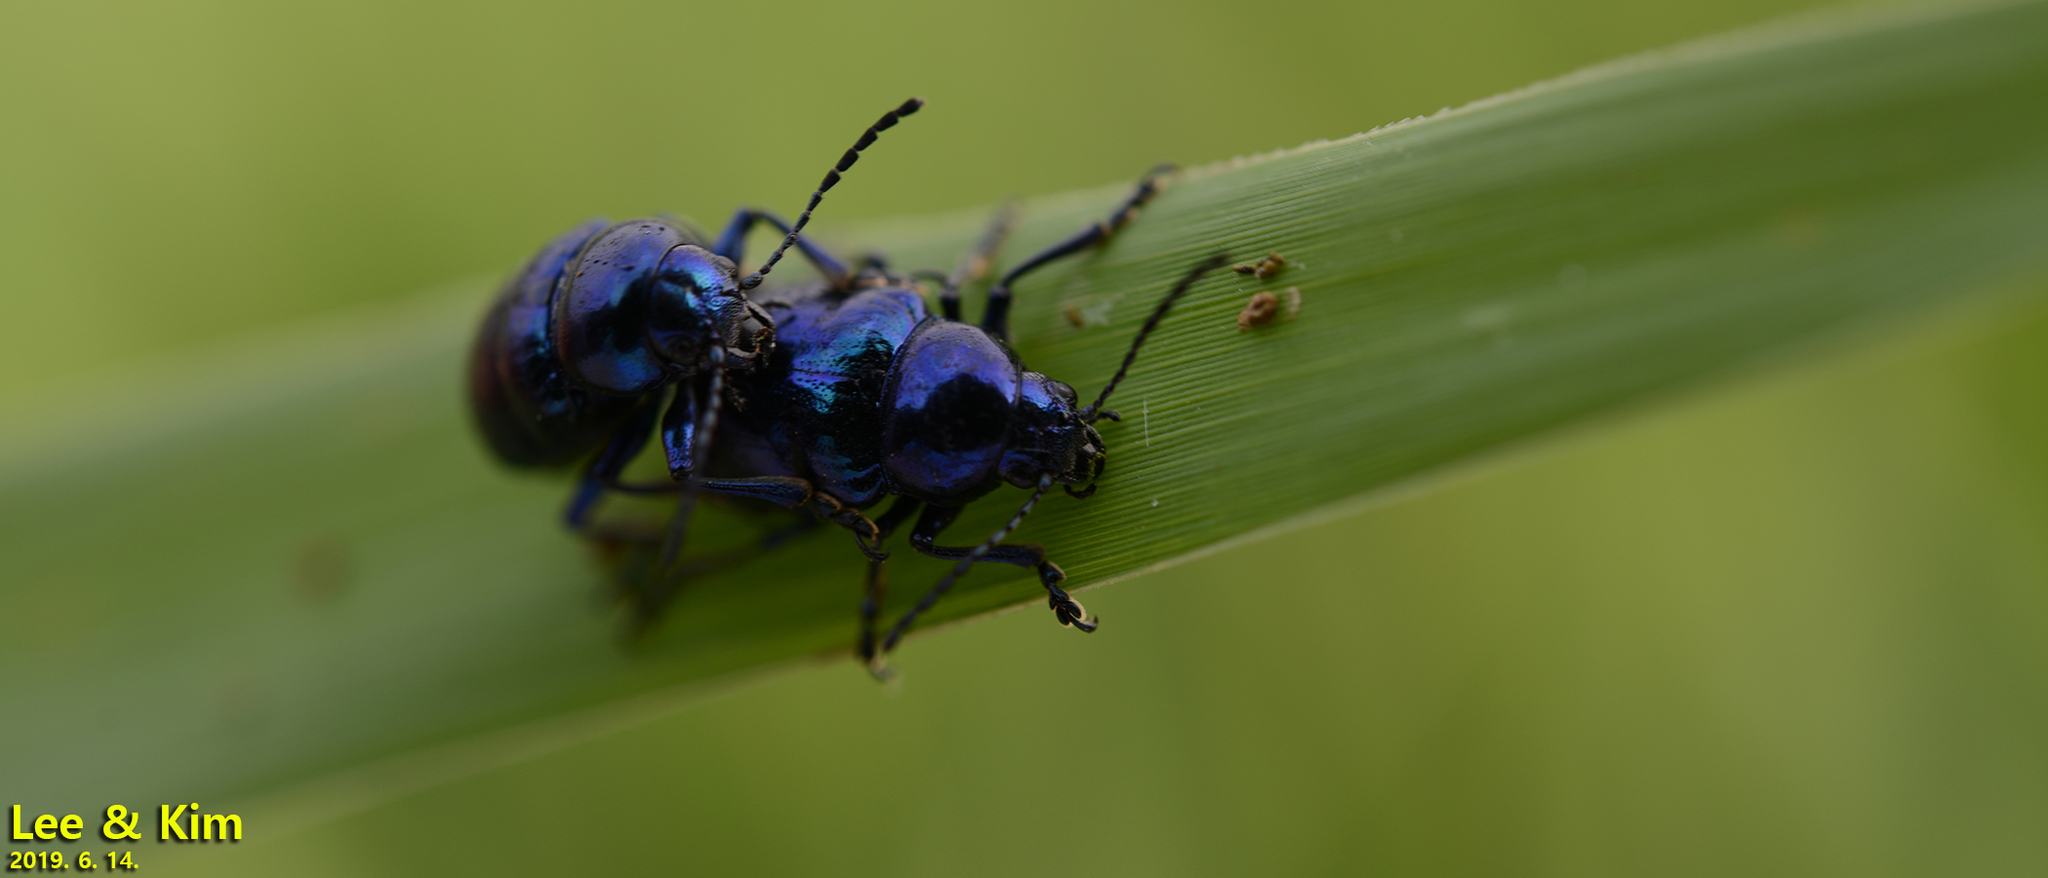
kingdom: Animalia
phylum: Arthropoda
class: Insecta
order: Coleoptera
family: Chrysomelidae
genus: Chrysochus
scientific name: Chrysochus chinensis
